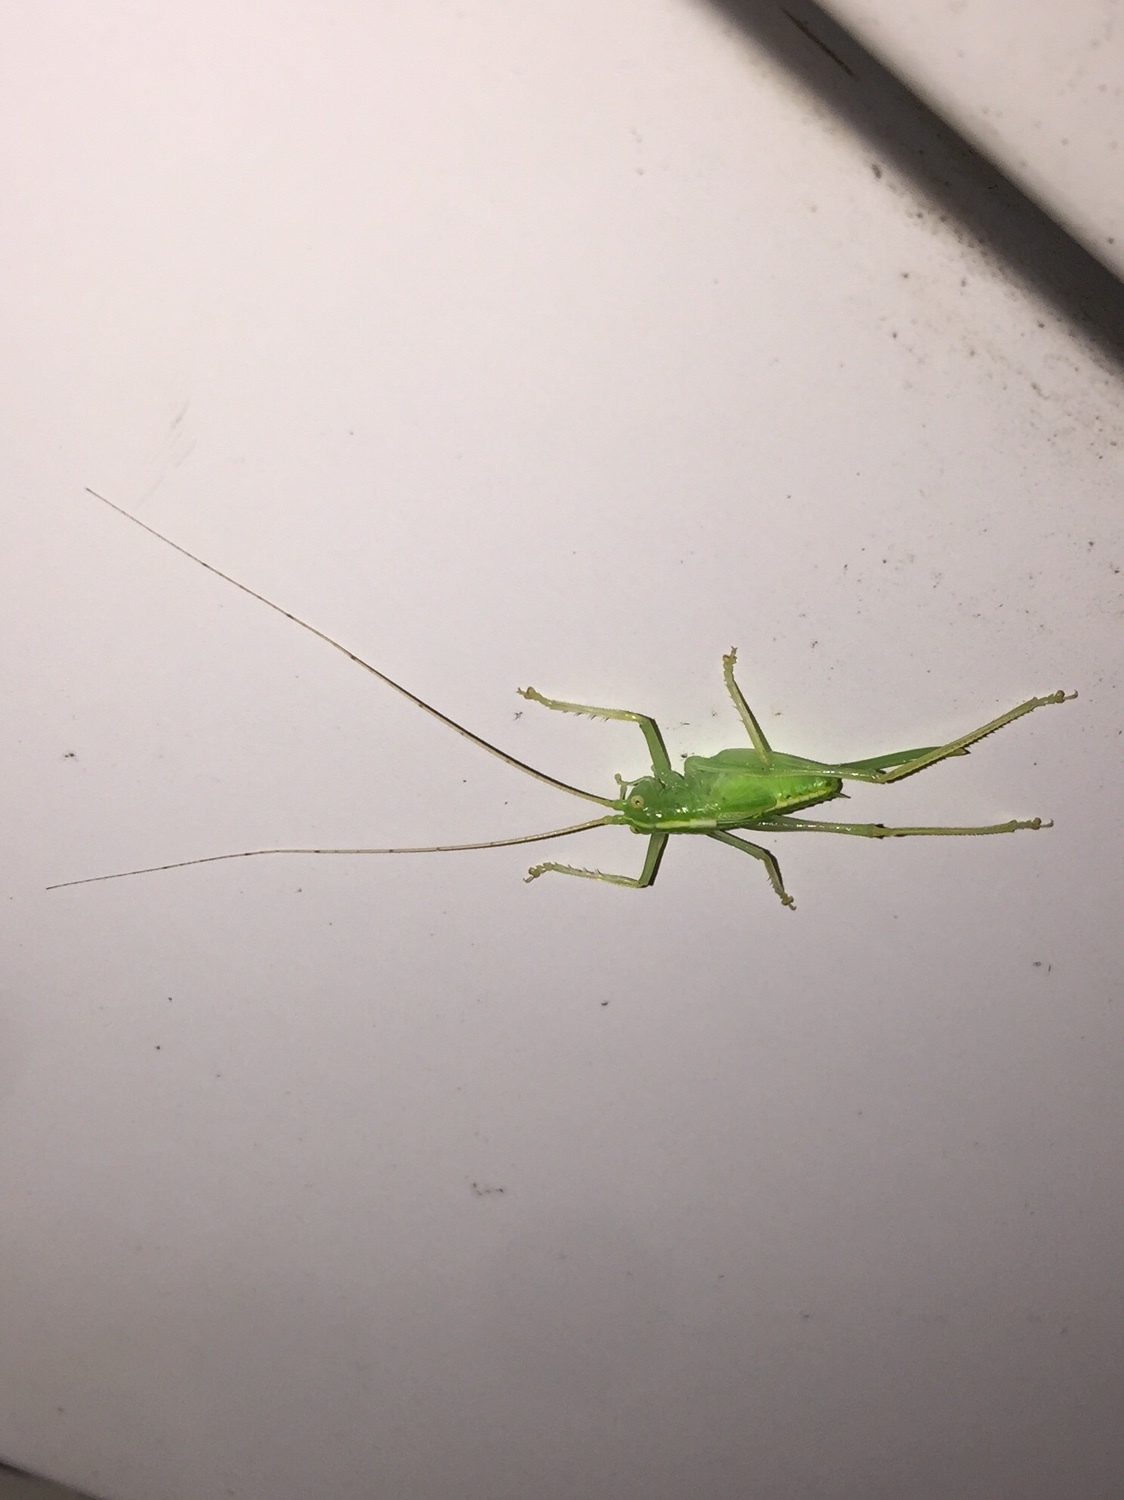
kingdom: Animalia
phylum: Arthropoda
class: Insecta
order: Orthoptera
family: Tettigoniidae
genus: Meconema
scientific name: Meconema thalassinum
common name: Oak bush-cricket
